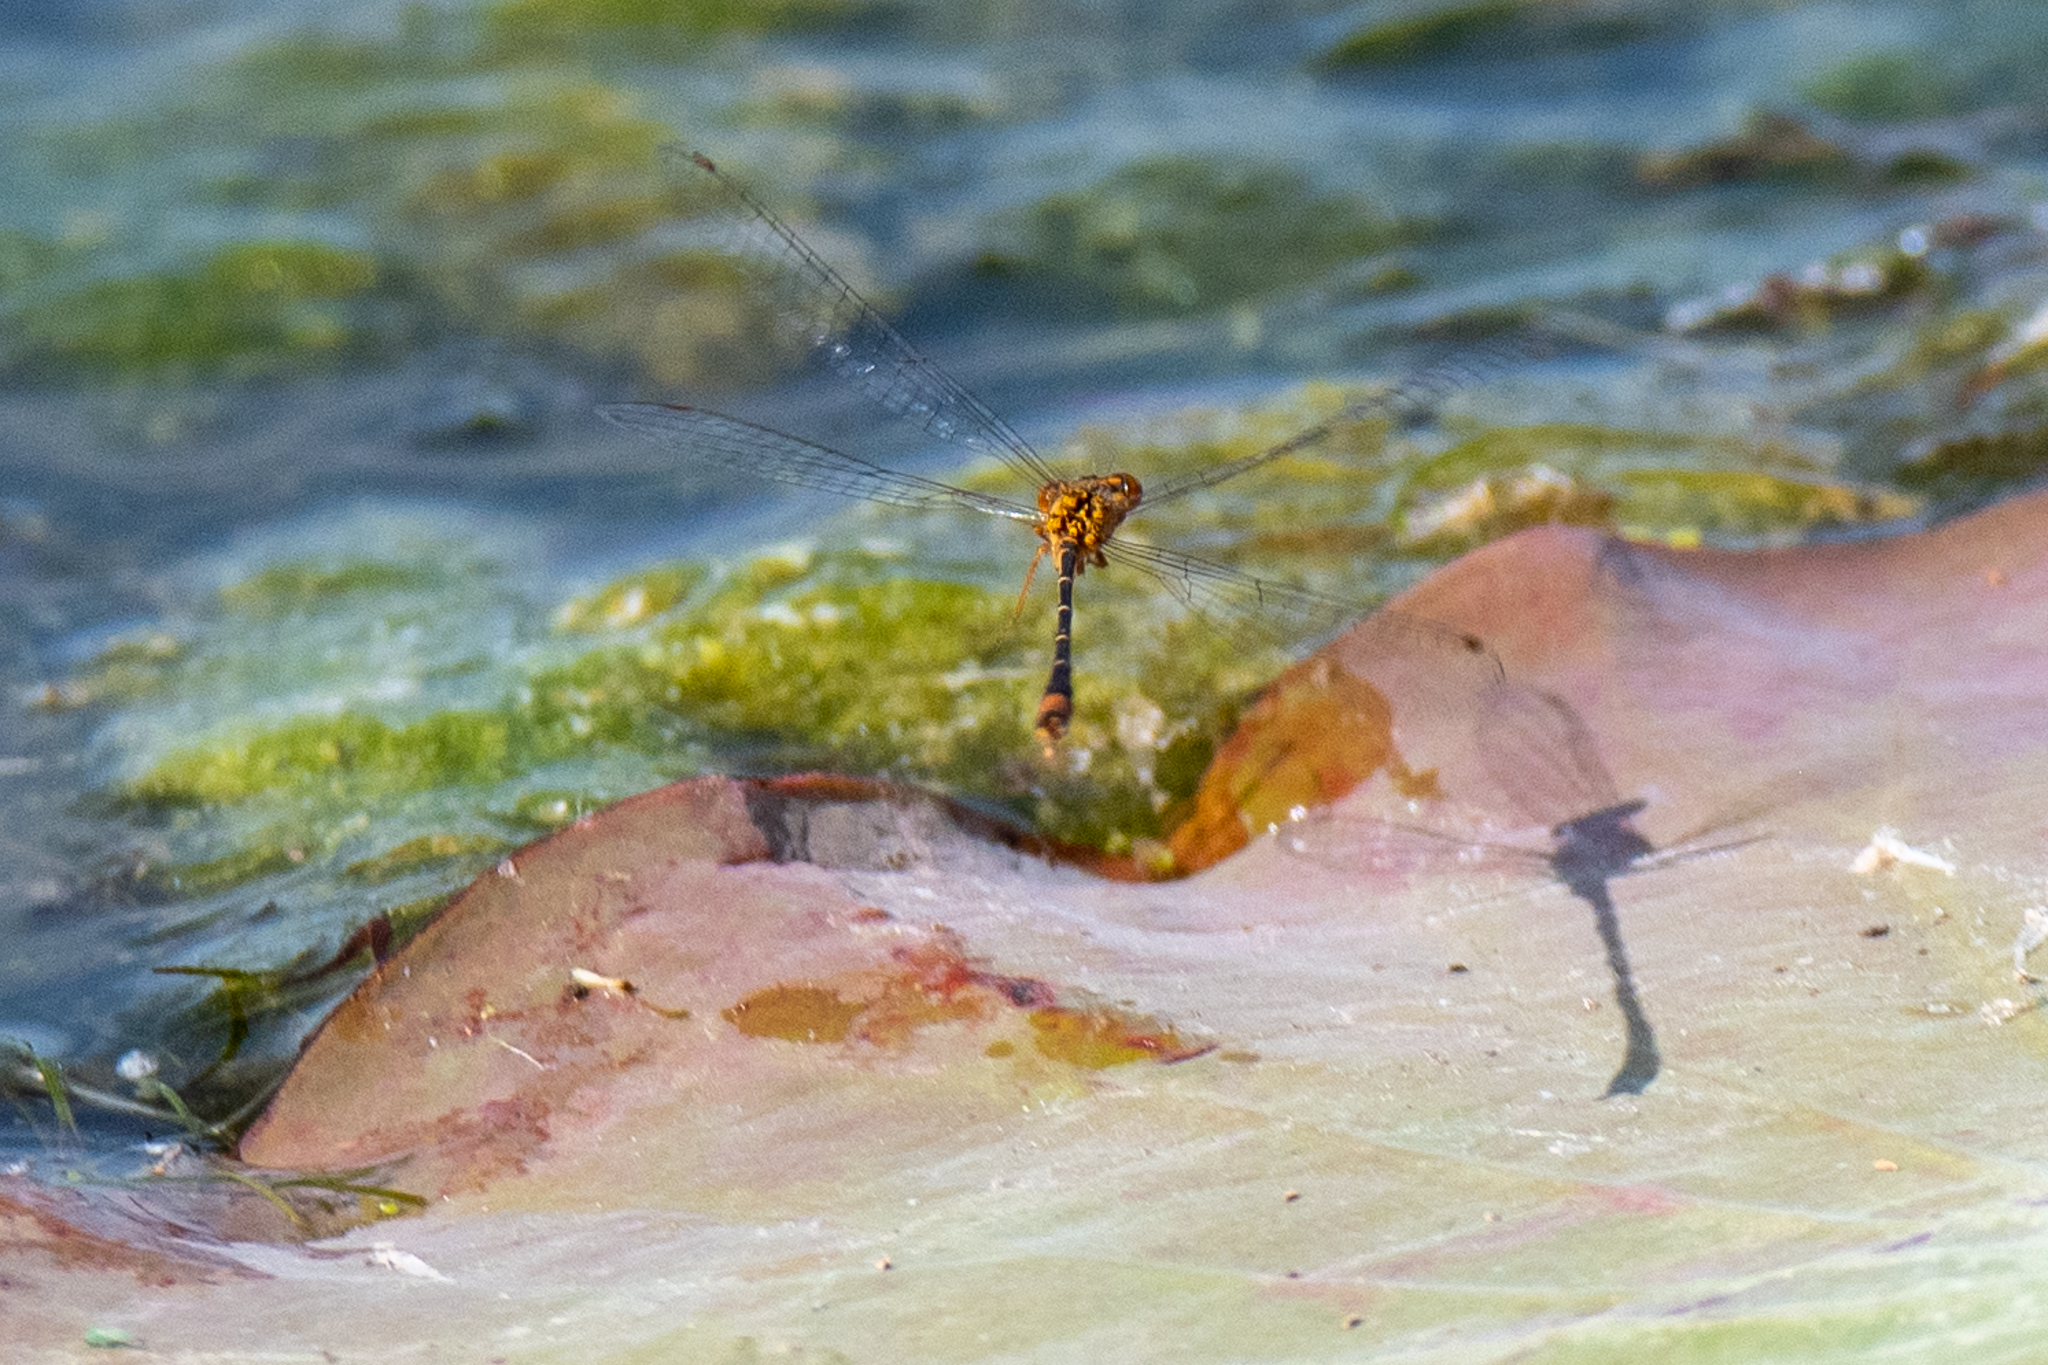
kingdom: Animalia
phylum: Arthropoda
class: Insecta
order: Odonata
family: Coenagrionidae
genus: Enallagma
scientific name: Enallagma signatum
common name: Orange bluet
